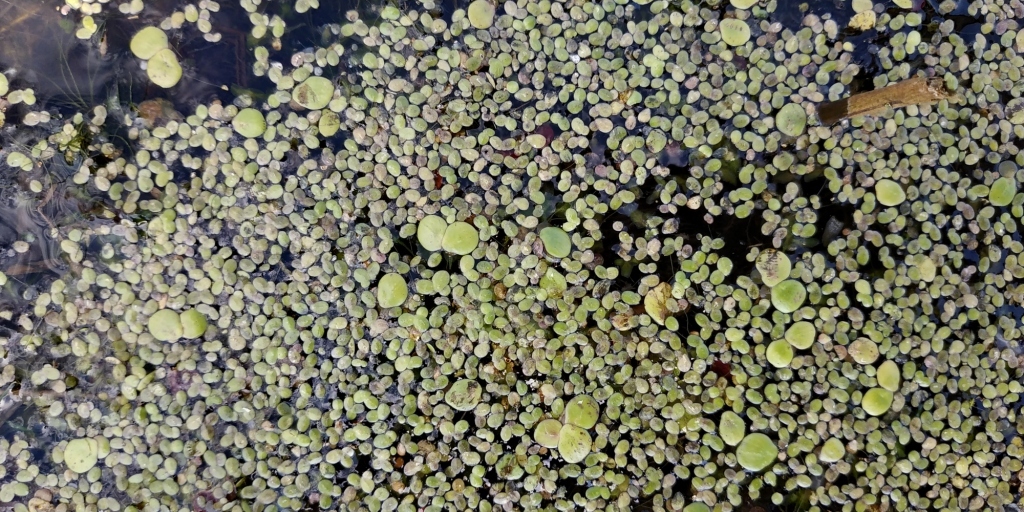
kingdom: Plantae
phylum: Tracheophyta
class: Liliopsida
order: Alismatales
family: Araceae
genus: Spirodela
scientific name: Spirodela polyrhiza
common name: Great duckweed
